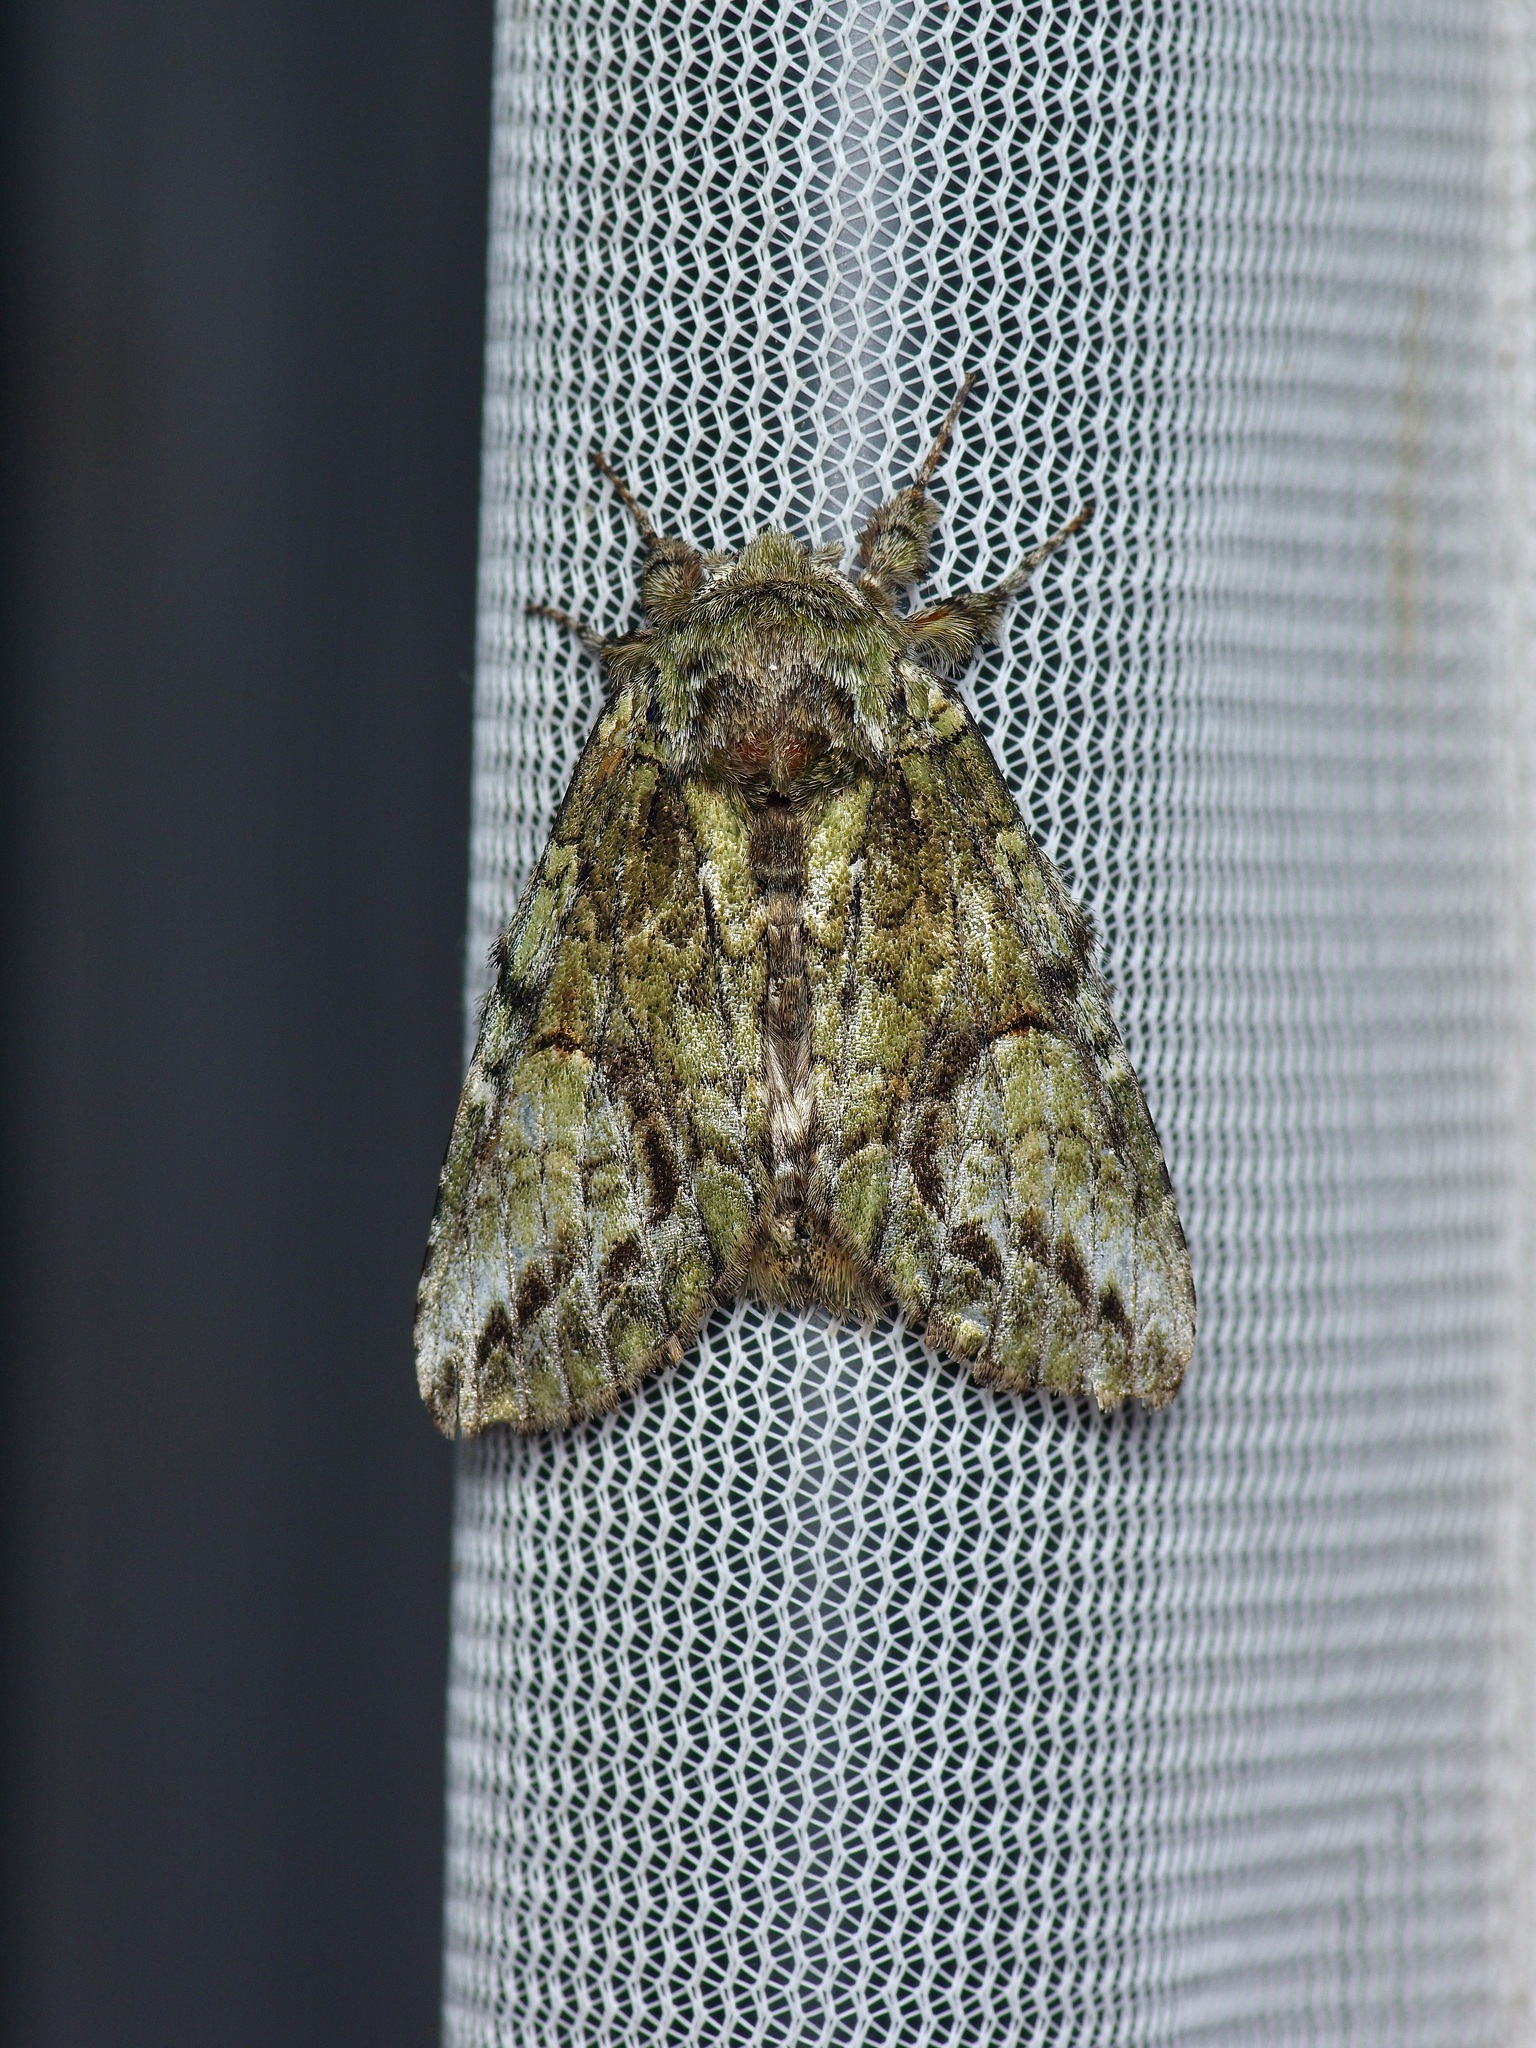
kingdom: Animalia
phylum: Arthropoda
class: Insecta
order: Lepidoptera
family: Notodontidae
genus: Heterocampa
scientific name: Heterocampa
